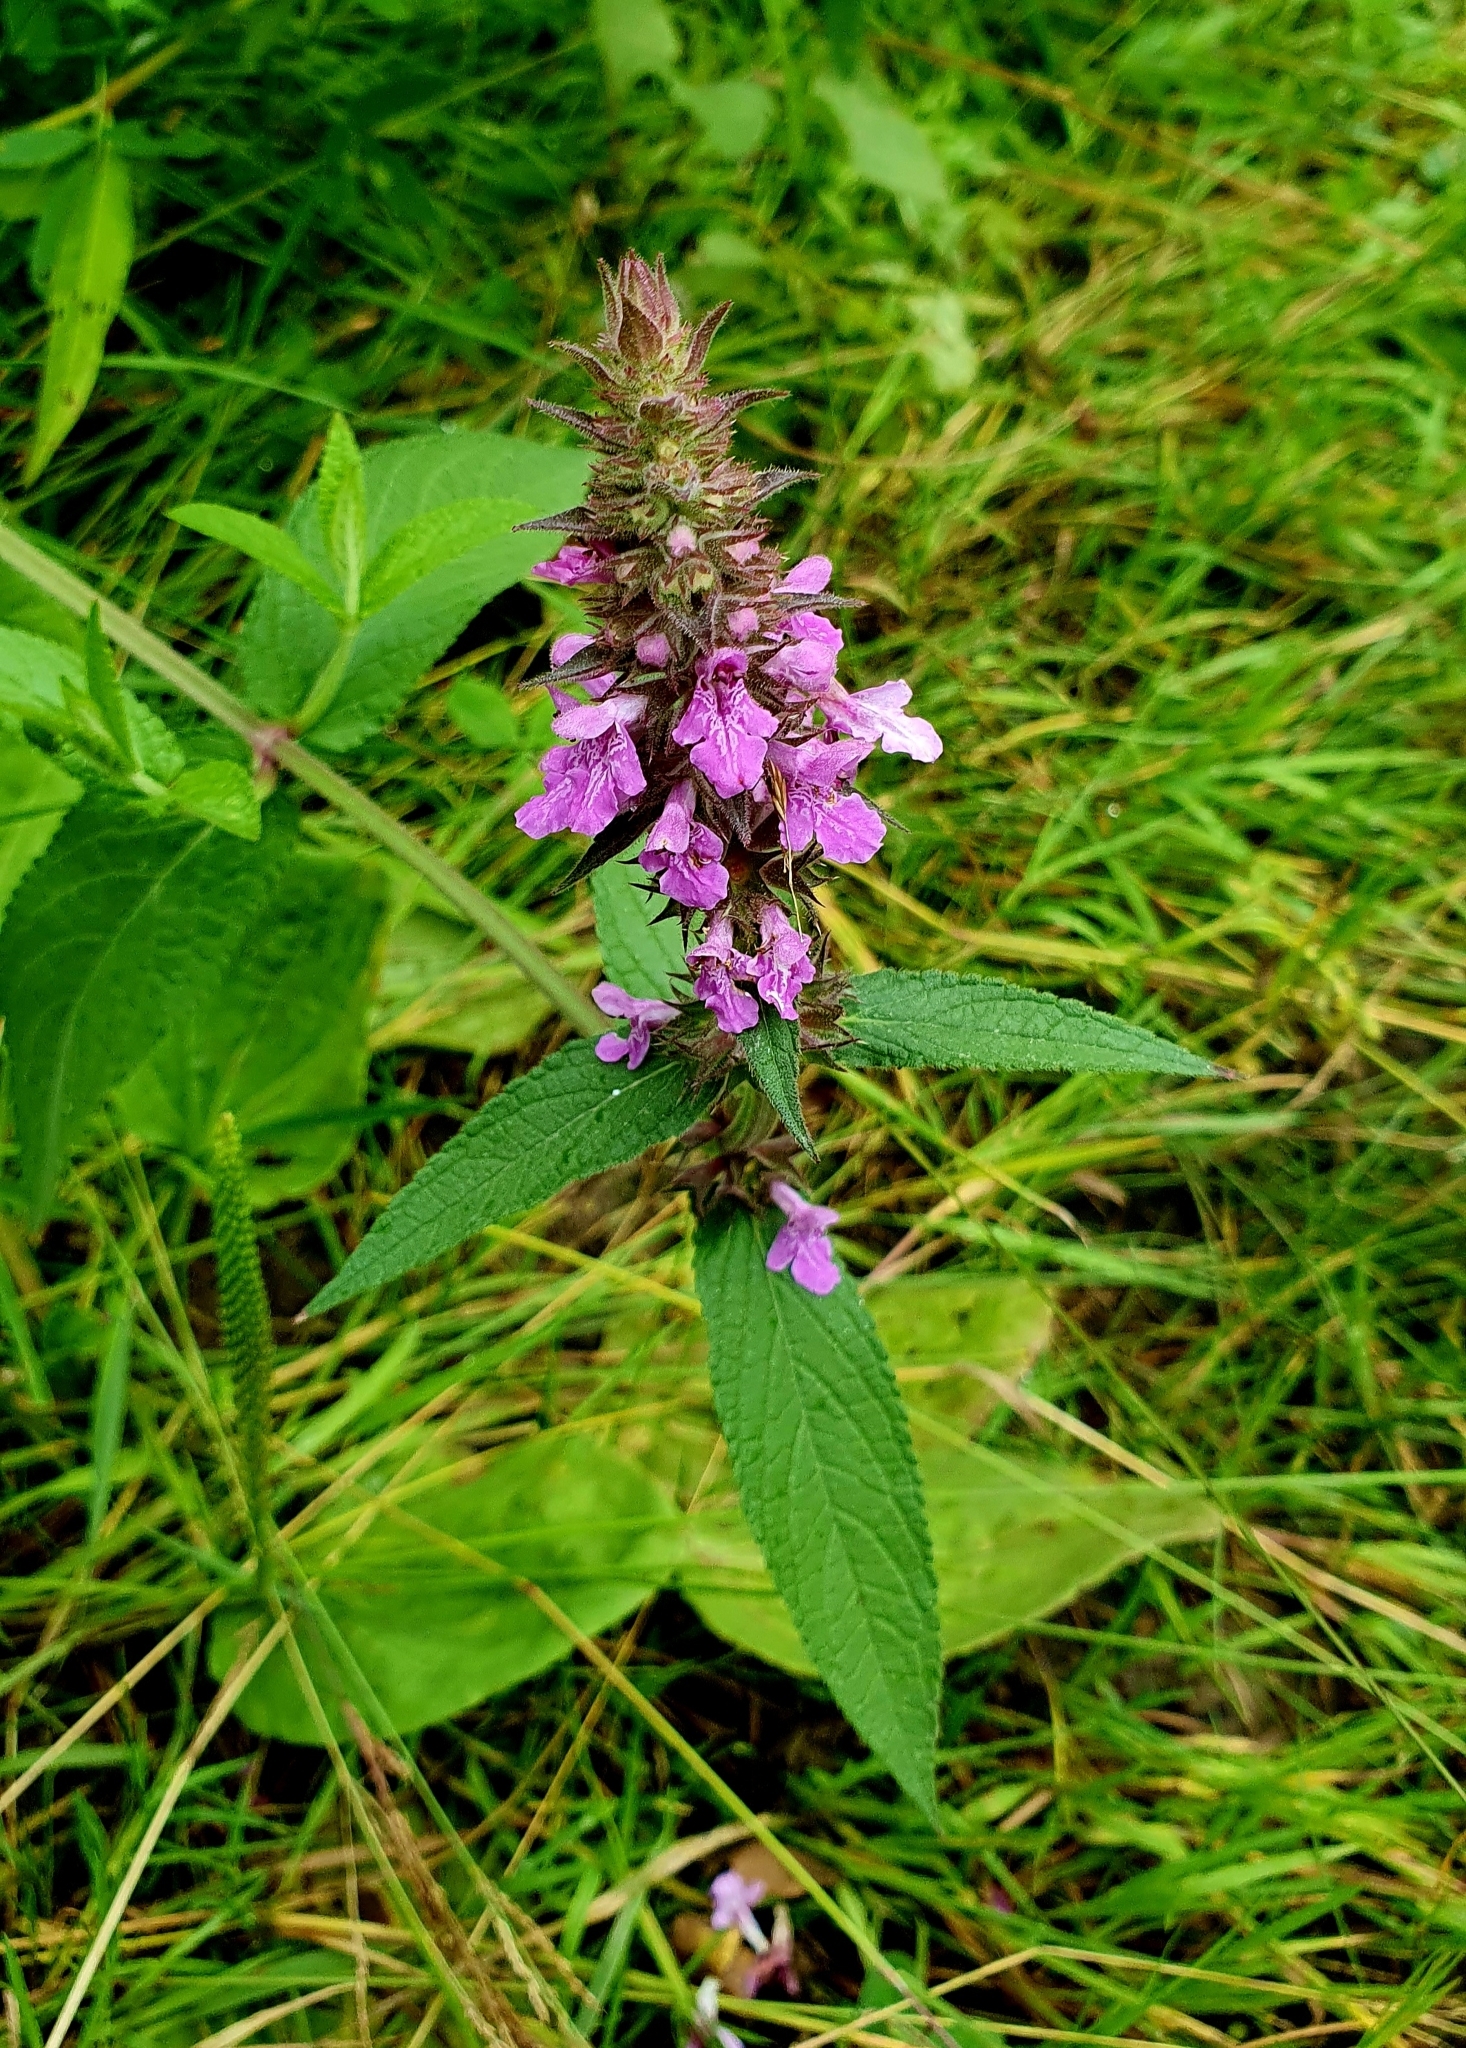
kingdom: Plantae
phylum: Tracheophyta
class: Magnoliopsida
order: Lamiales
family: Lamiaceae
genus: Stachys
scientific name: Stachys palustris
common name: Marsh woundwort
